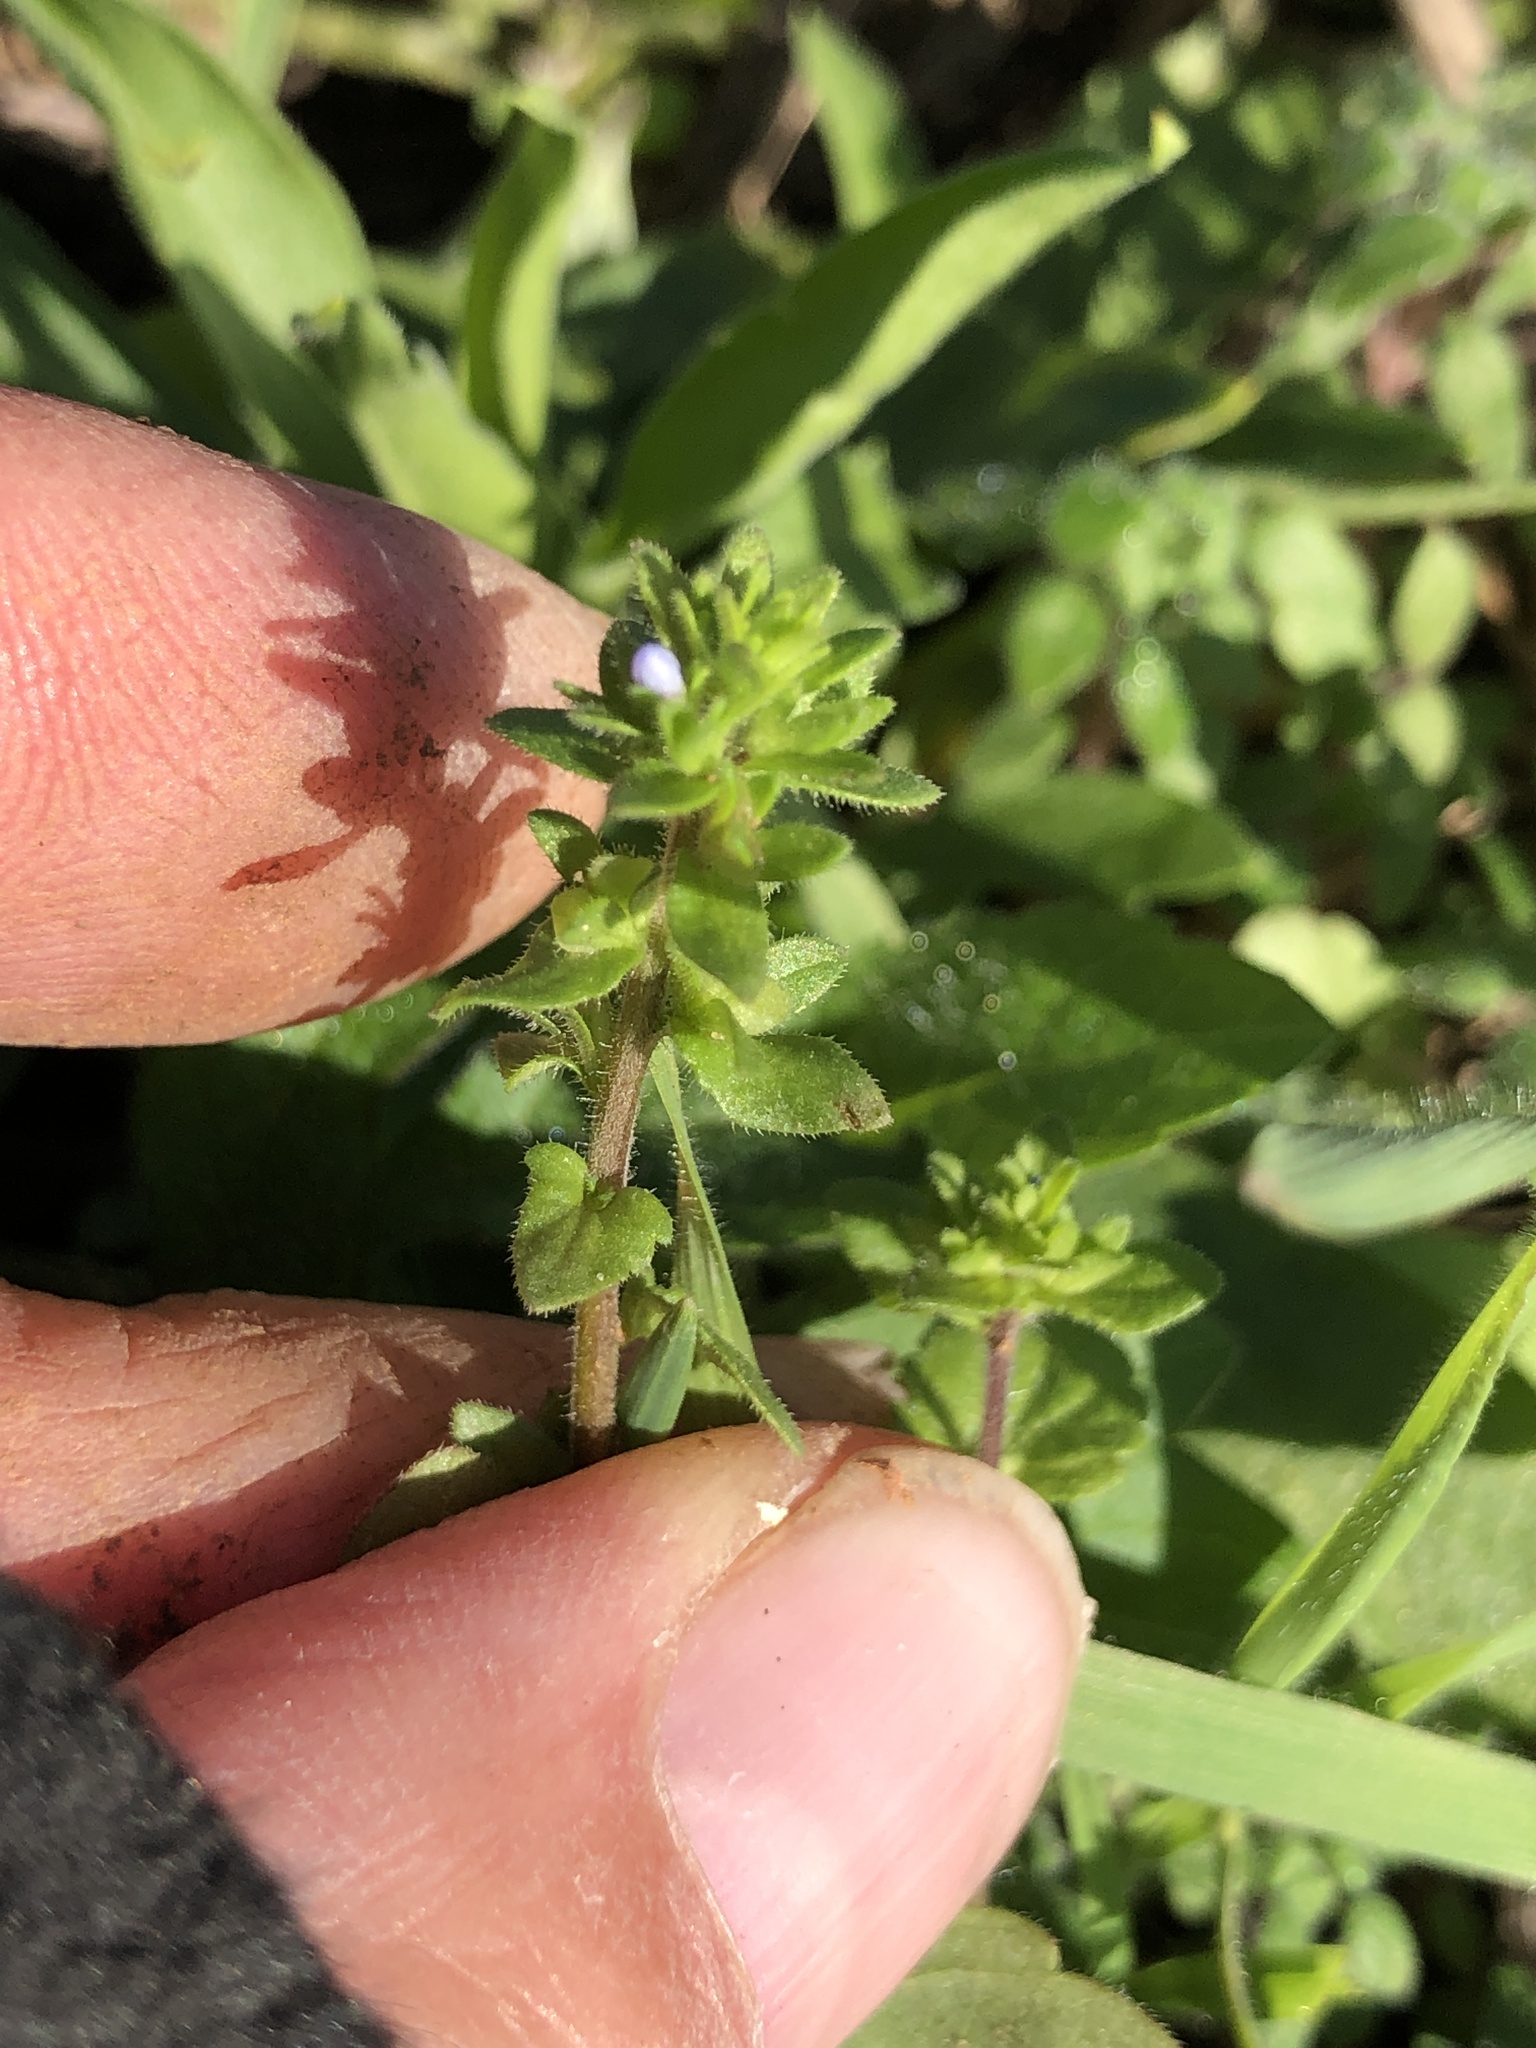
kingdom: Plantae
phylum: Tracheophyta
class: Magnoliopsida
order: Lamiales
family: Plantaginaceae
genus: Veronica
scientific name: Veronica arvensis
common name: Corn speedwell
